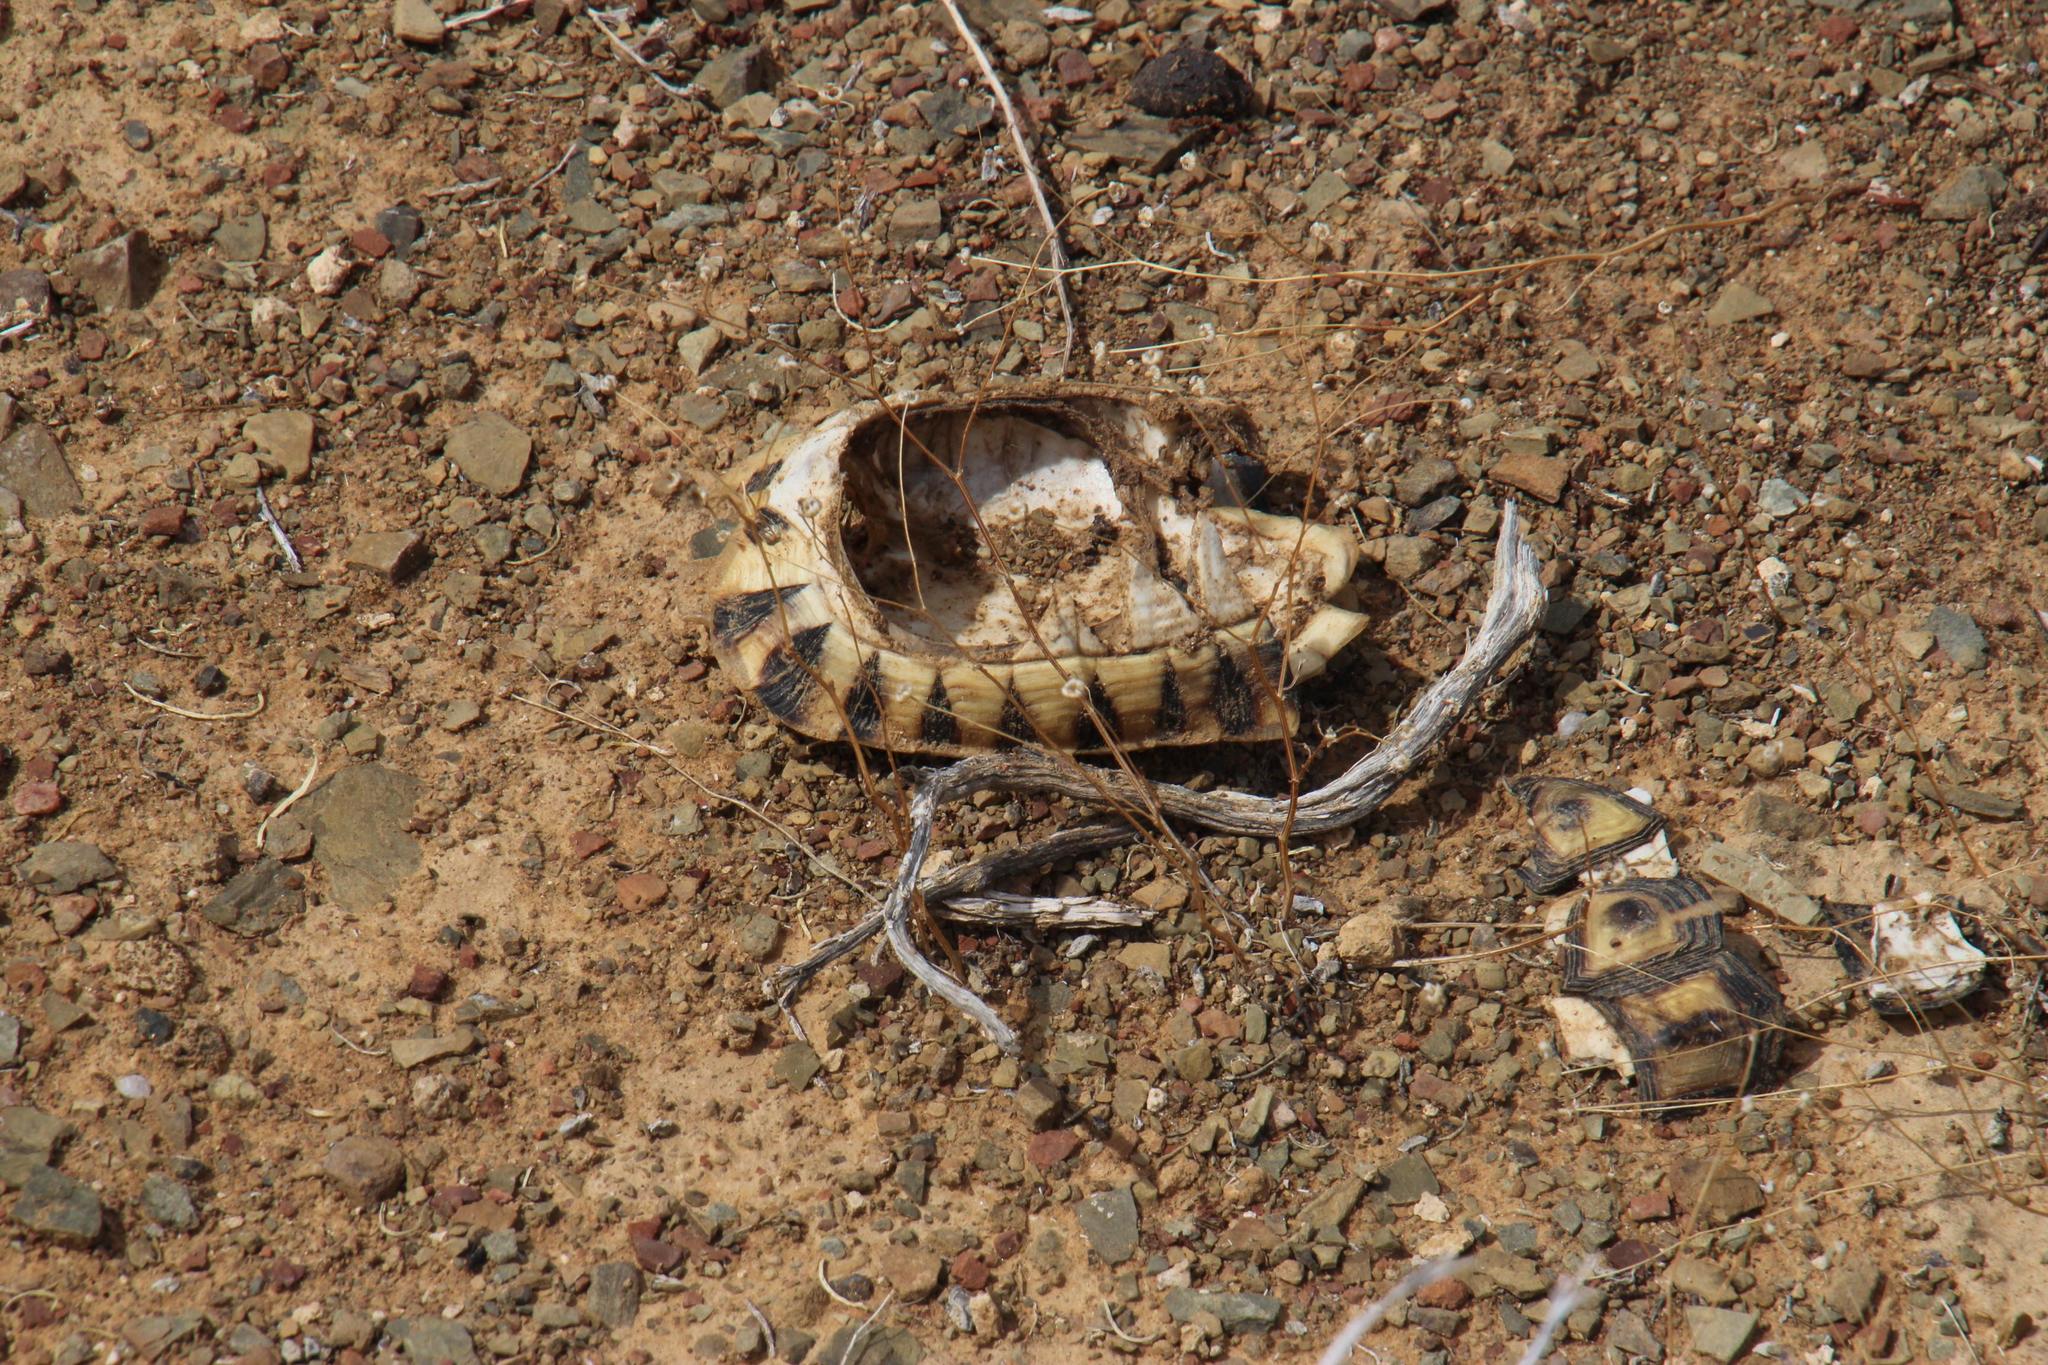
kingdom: Animalia
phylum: Chordata
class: Testudines
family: Testudinidae
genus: Chersina
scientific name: Chersina angulata
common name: South african bowsprit tortoise
